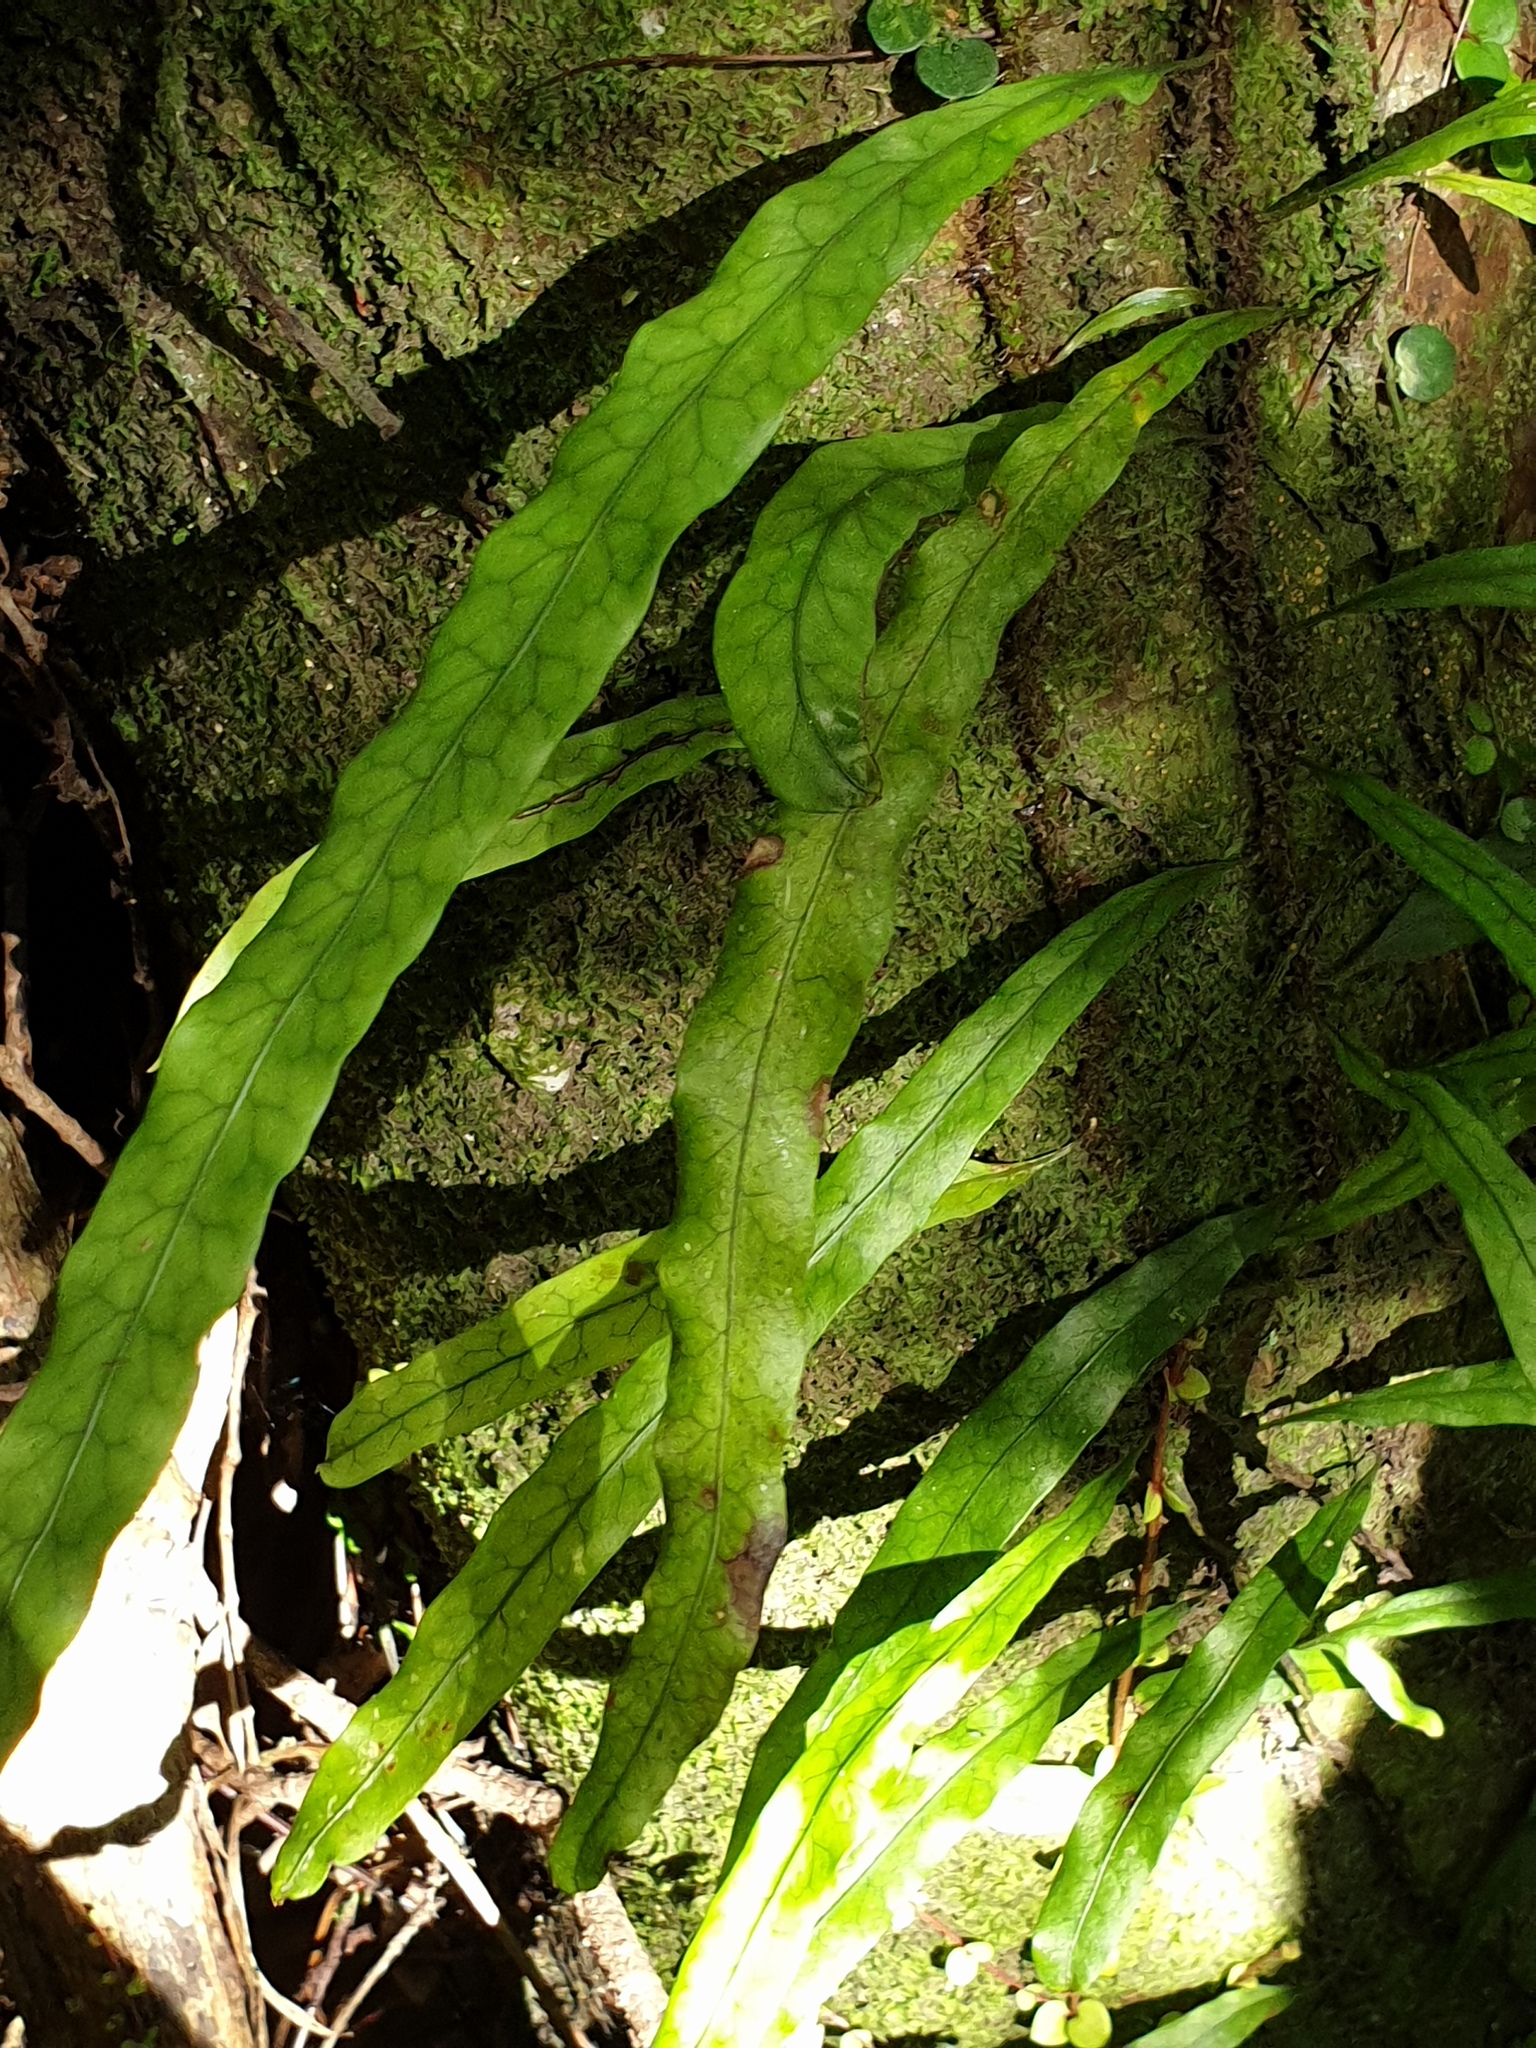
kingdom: Plantae
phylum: Tracheophyta
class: Polypodiopsida
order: Polypodiales
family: Polypodiaceae
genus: Lecanopteris
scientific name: Lecanopteris scandens
